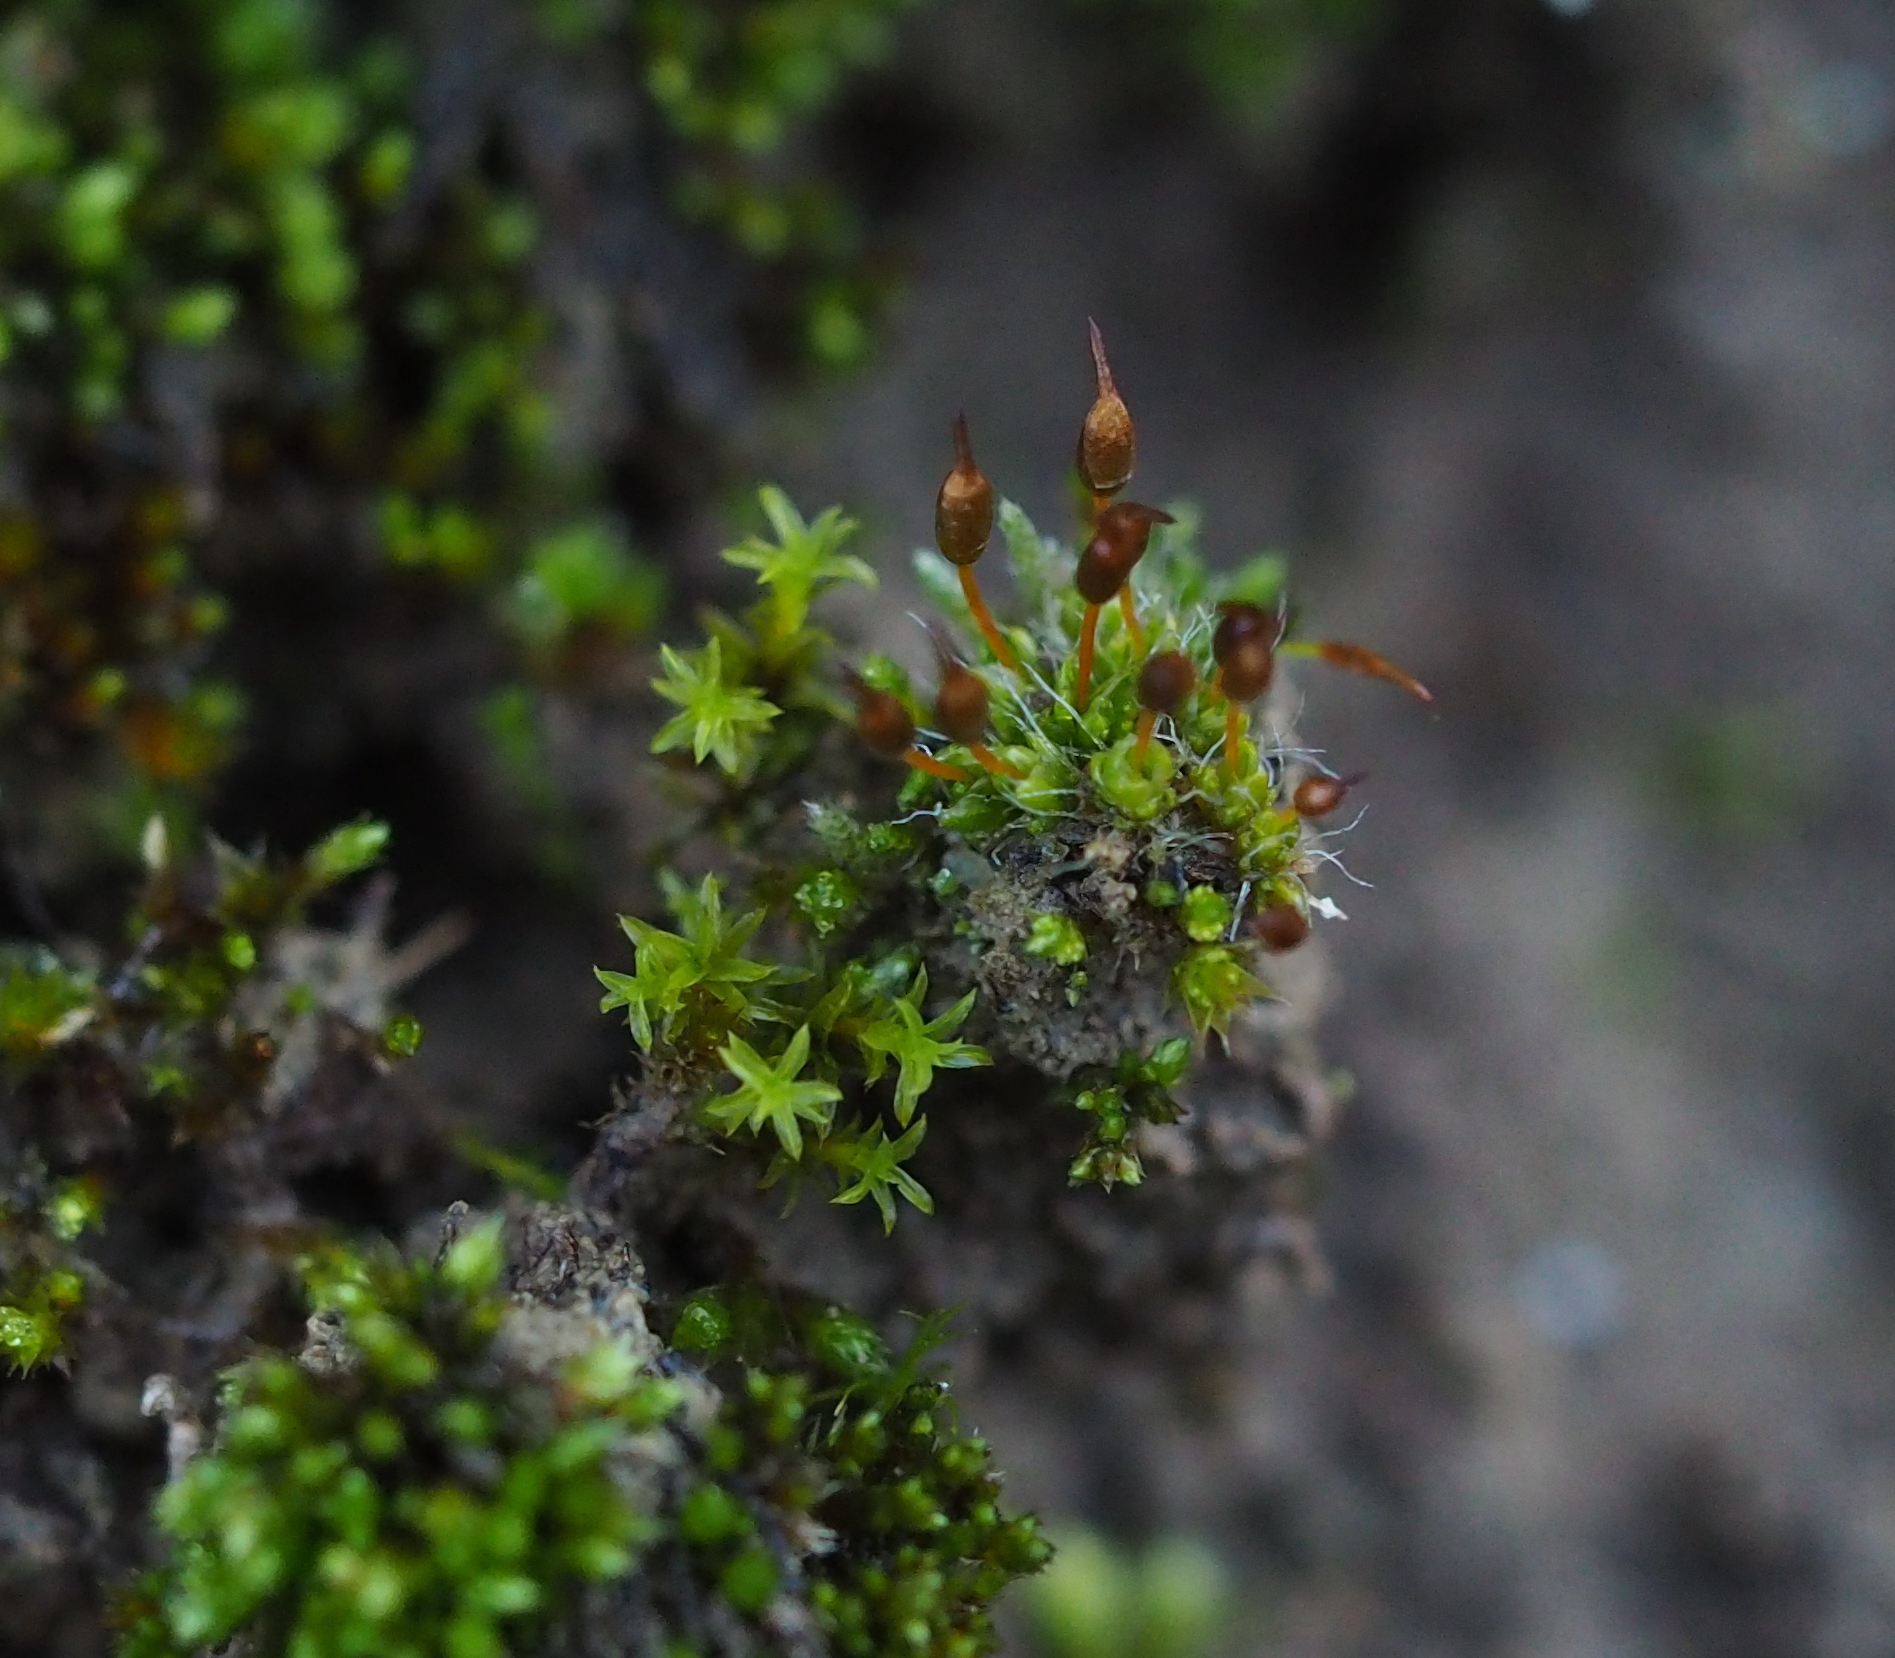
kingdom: Plantae
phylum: Bryophyta
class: Bryopsida
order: Pottiales
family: Pottiaceae
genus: Pterygoneurum
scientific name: Pterygoneurum ovatum
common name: Ovate pterygoneurum
